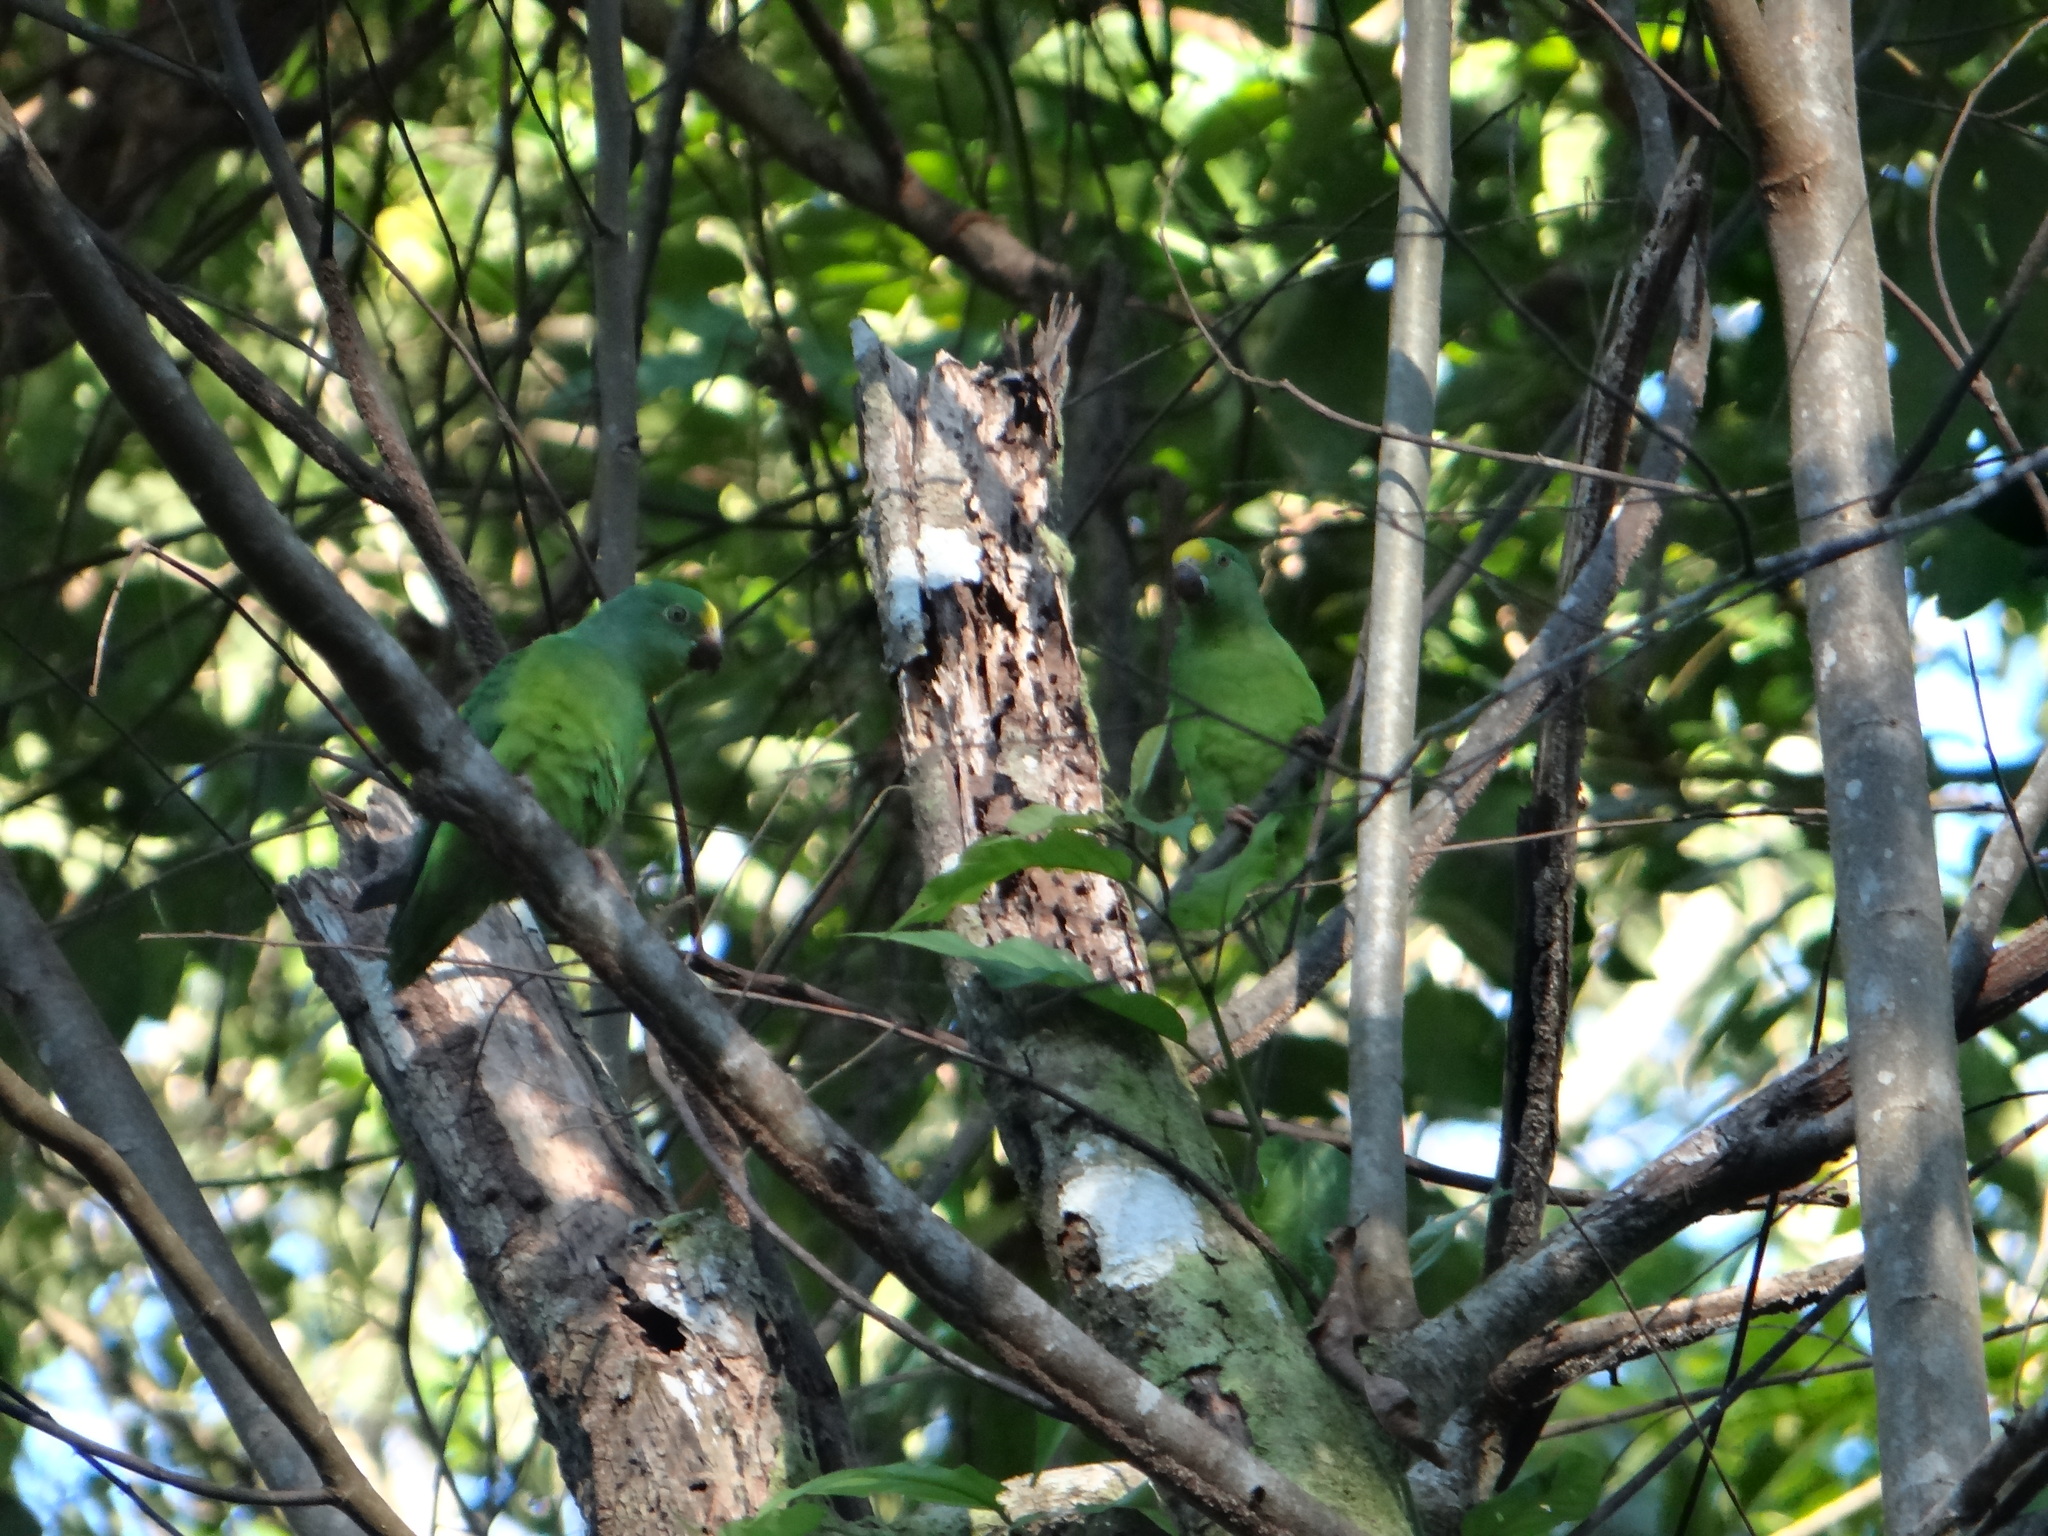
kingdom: Animalia
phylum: Chordata
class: Aves
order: Psittaciformes
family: Psittacidae
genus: Brotogeris
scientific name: Brotogeris sanctithomae
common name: Tui parakeet
